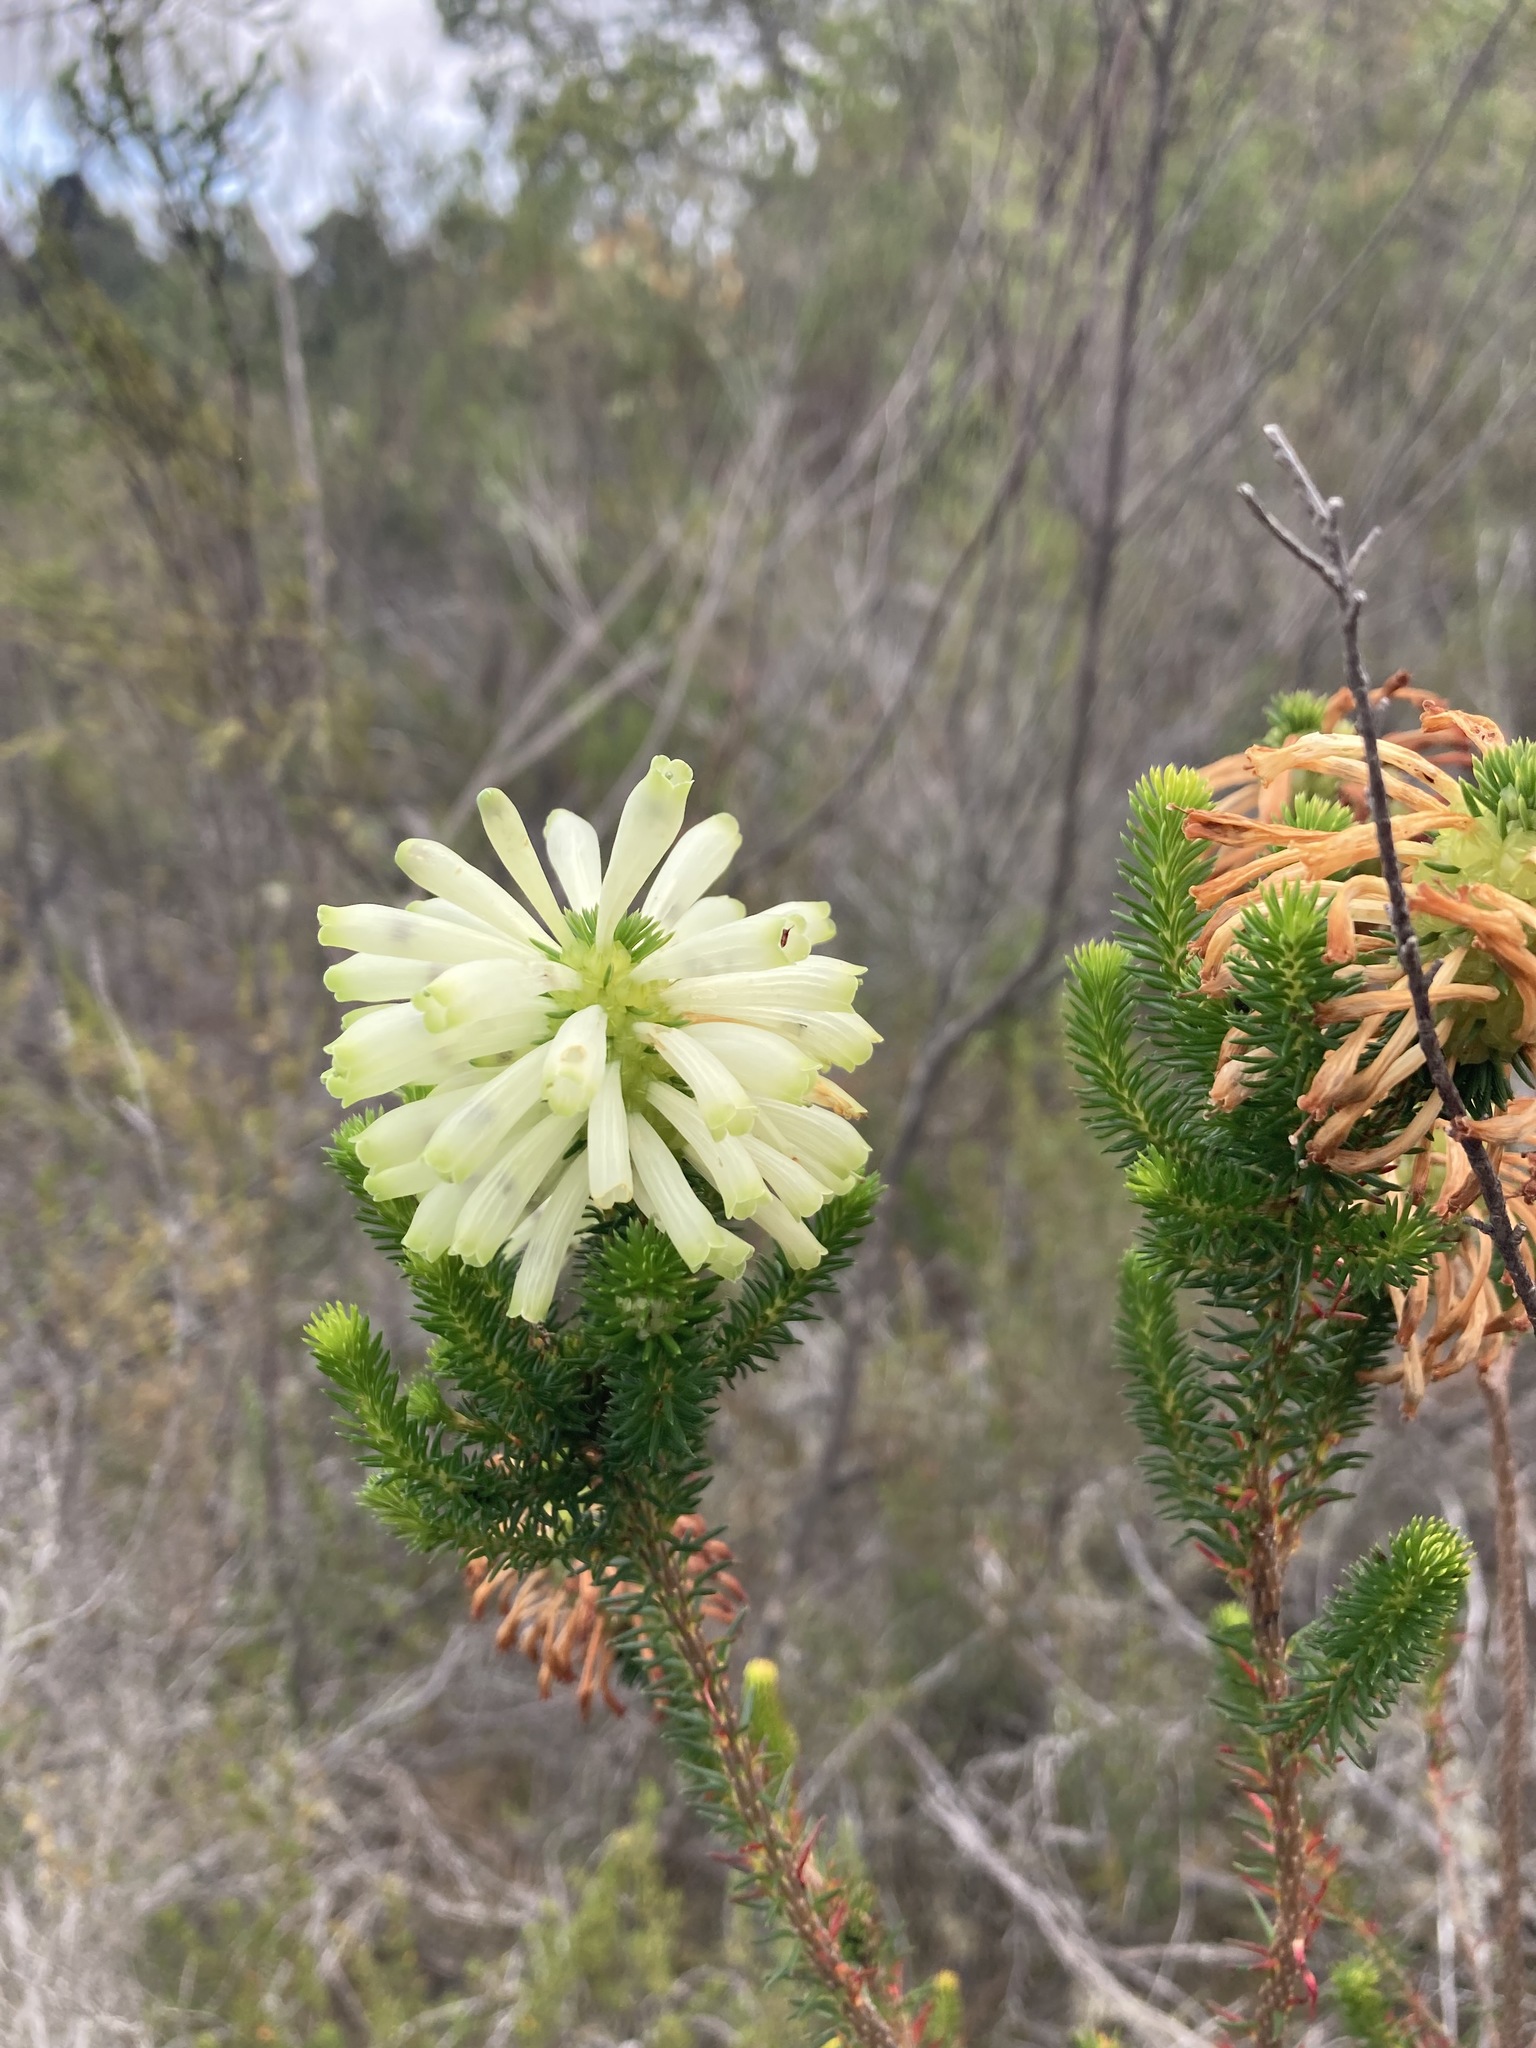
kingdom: Plantae
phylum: Tracheophyta
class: Magnoliopsida
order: Ericales
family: Ericaceae
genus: Erica
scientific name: Erica sessiliflora
